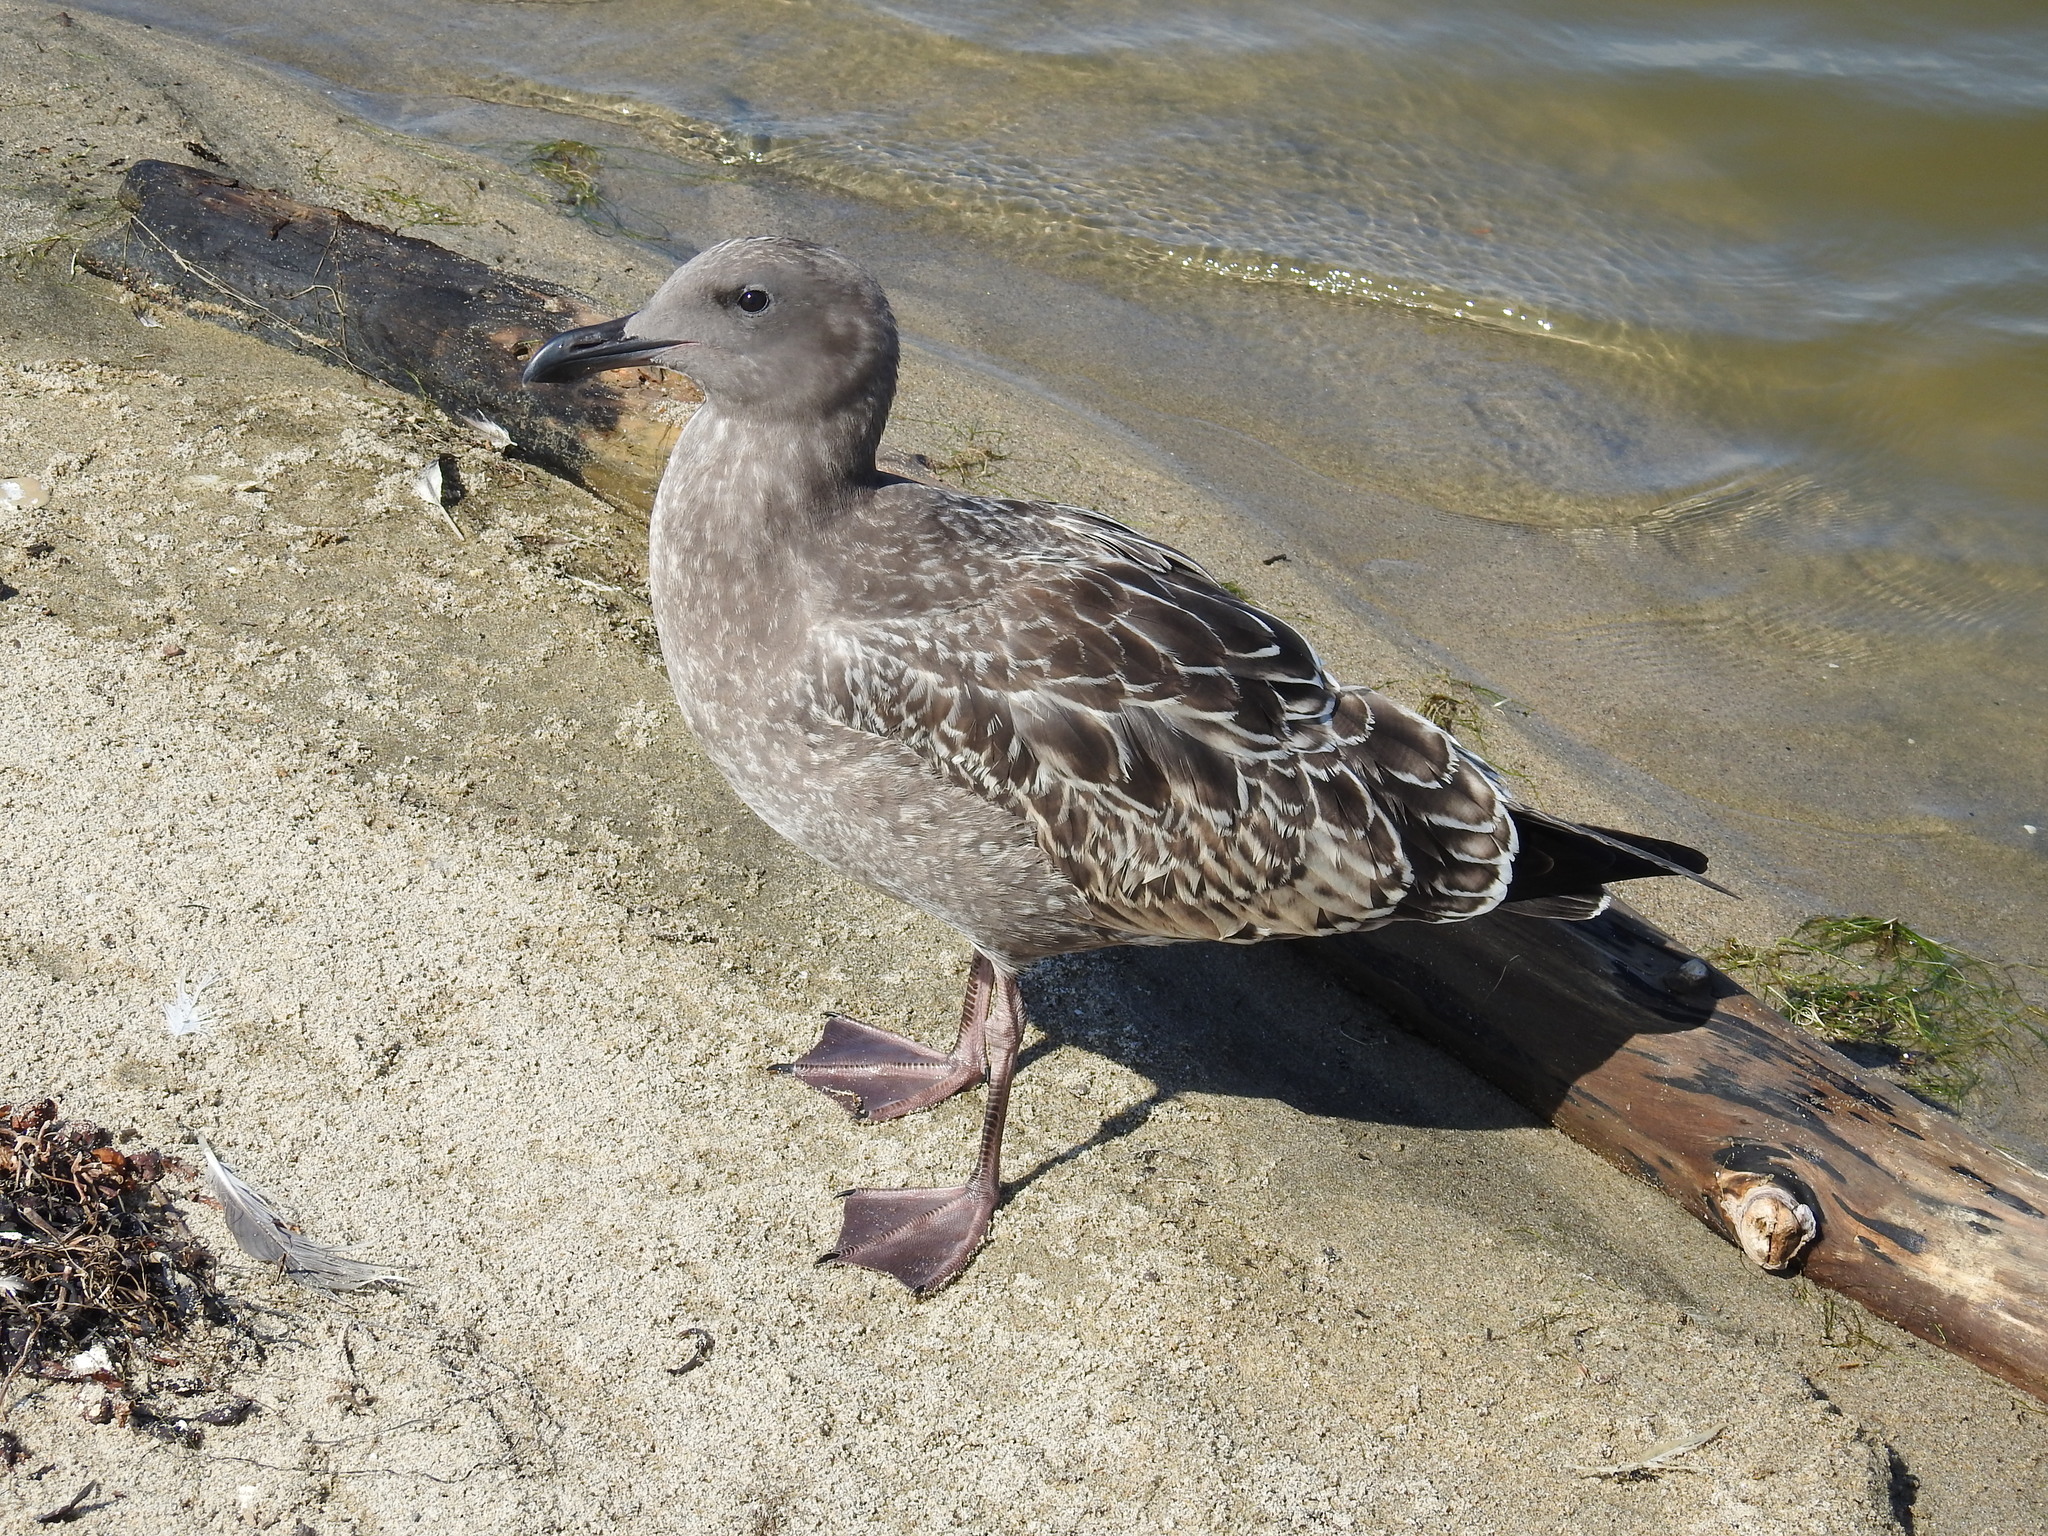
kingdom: Animalia
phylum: Chordata
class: Aves
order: Charadriiformes
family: Laridae
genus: Larus
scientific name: Larus occidentalis
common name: Western gull
